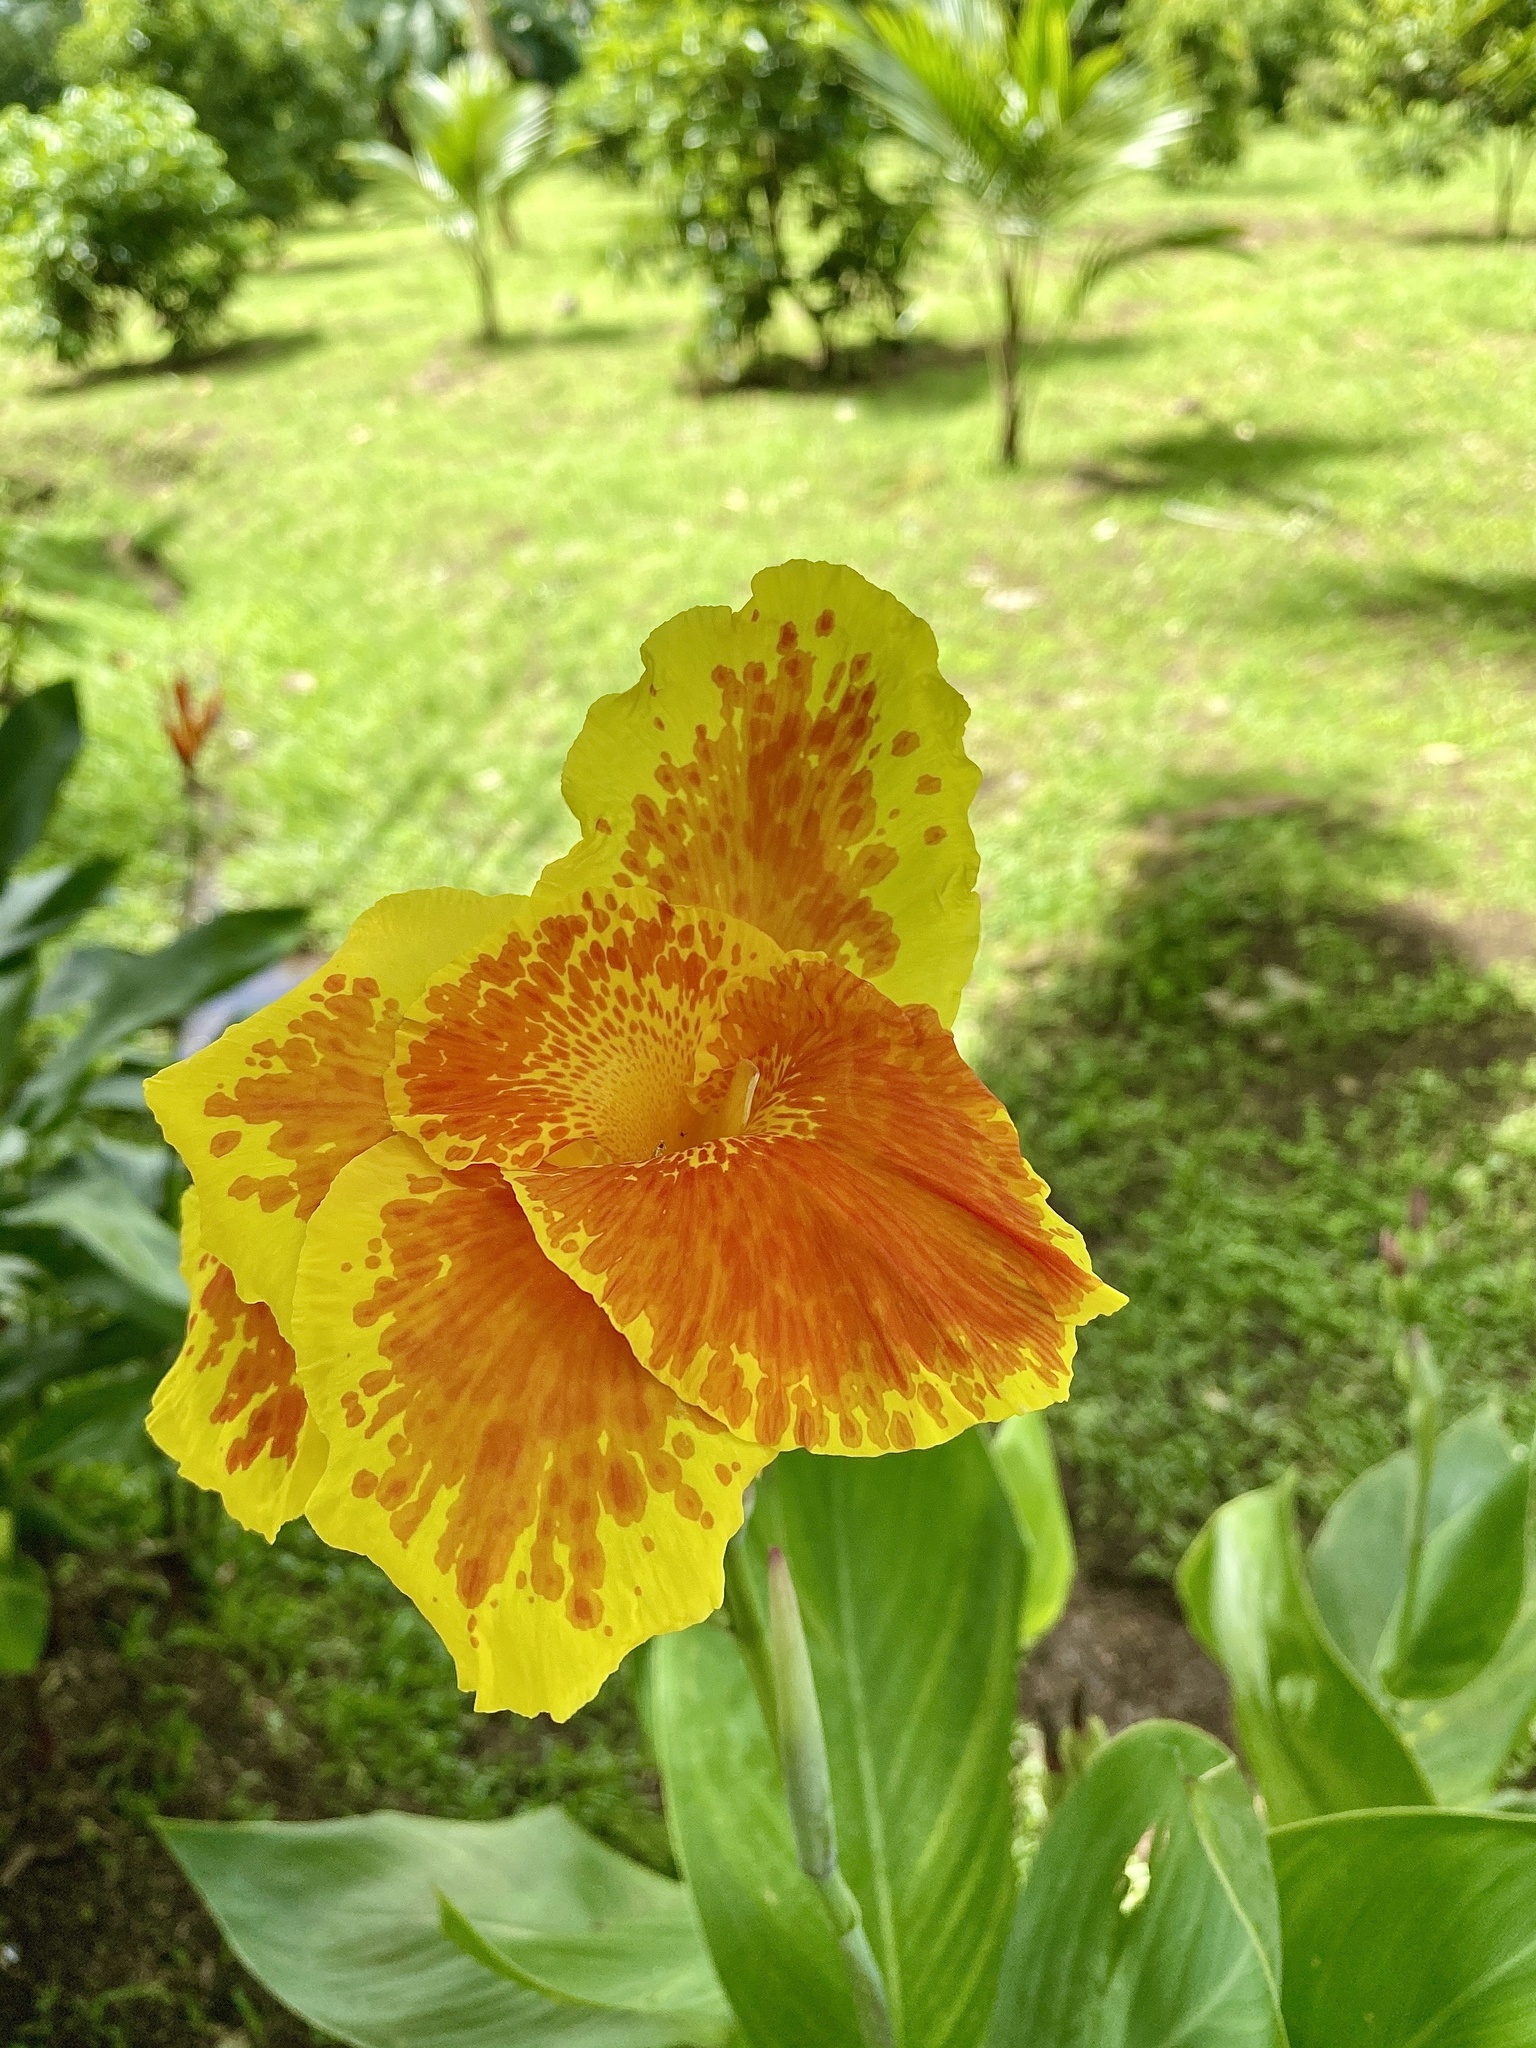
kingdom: Plantae
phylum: Tracheophyta
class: Liliopsida
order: Zingiberales
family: Cannaceae
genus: Canna
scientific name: Canna hybrida
